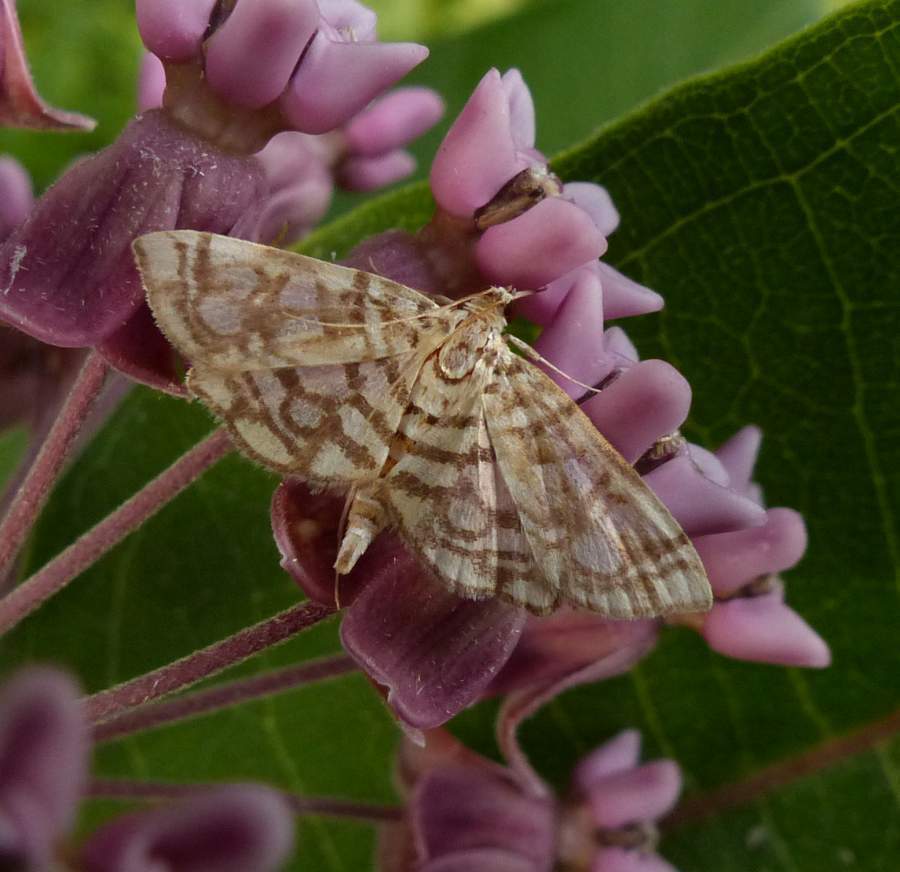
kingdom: Animalia
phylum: Arthropoda
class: Insecta
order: Lepidoptera
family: Crambidae
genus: Lygropia
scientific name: Lygropia rivulalis
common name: Bog lygropia moth
